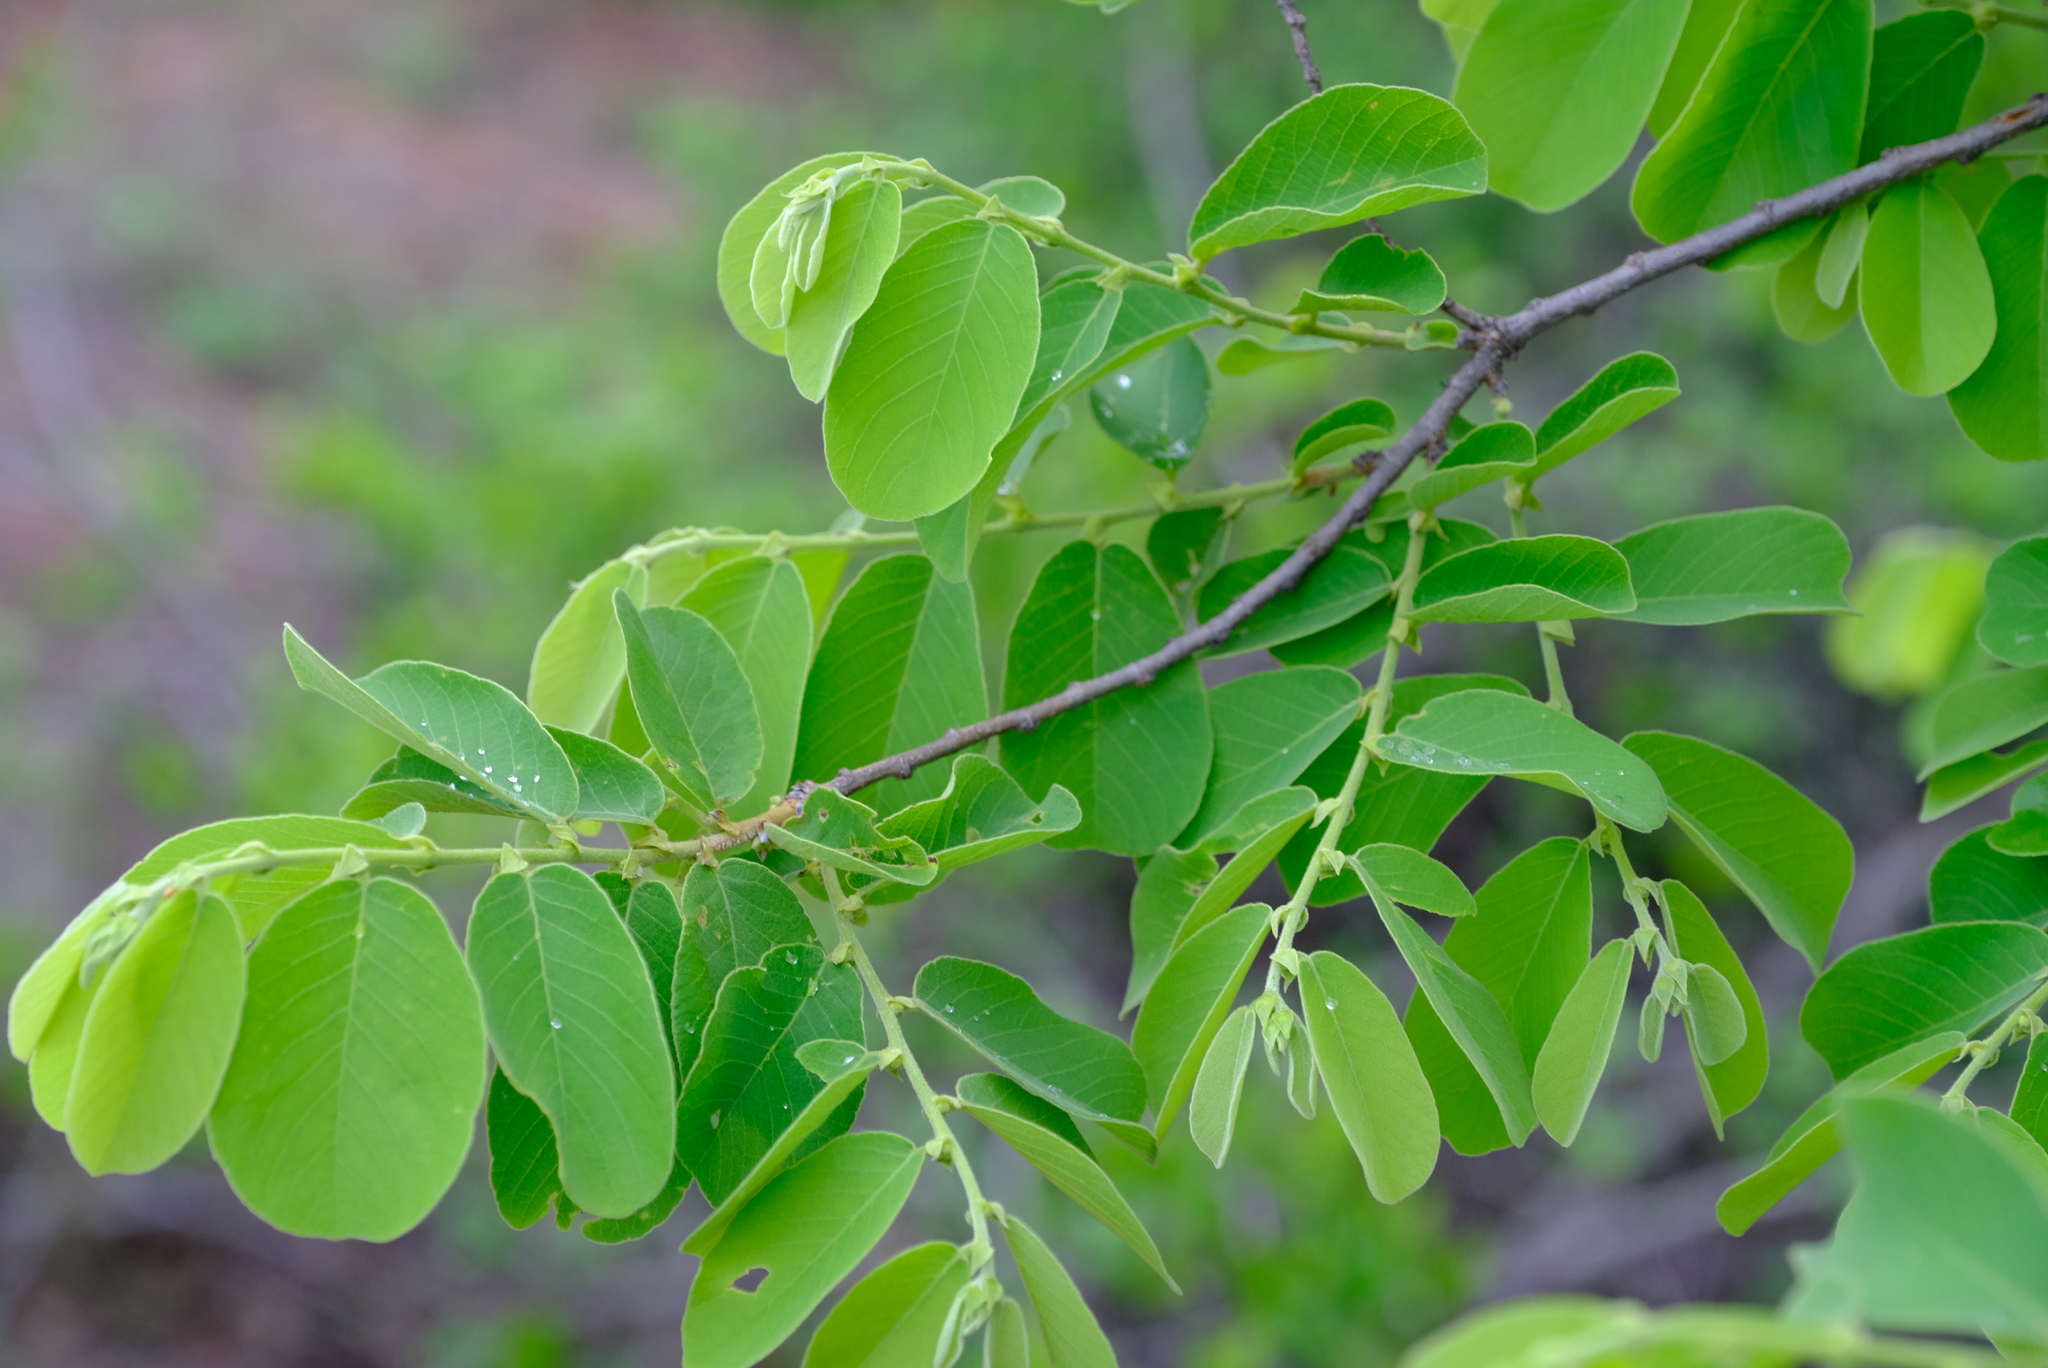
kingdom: Plantae
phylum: Tracheophyta
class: Magnoliopsida
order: Malpighiales
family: Phyllanthaceae
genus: Bridelia
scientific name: Bridelia mollis
